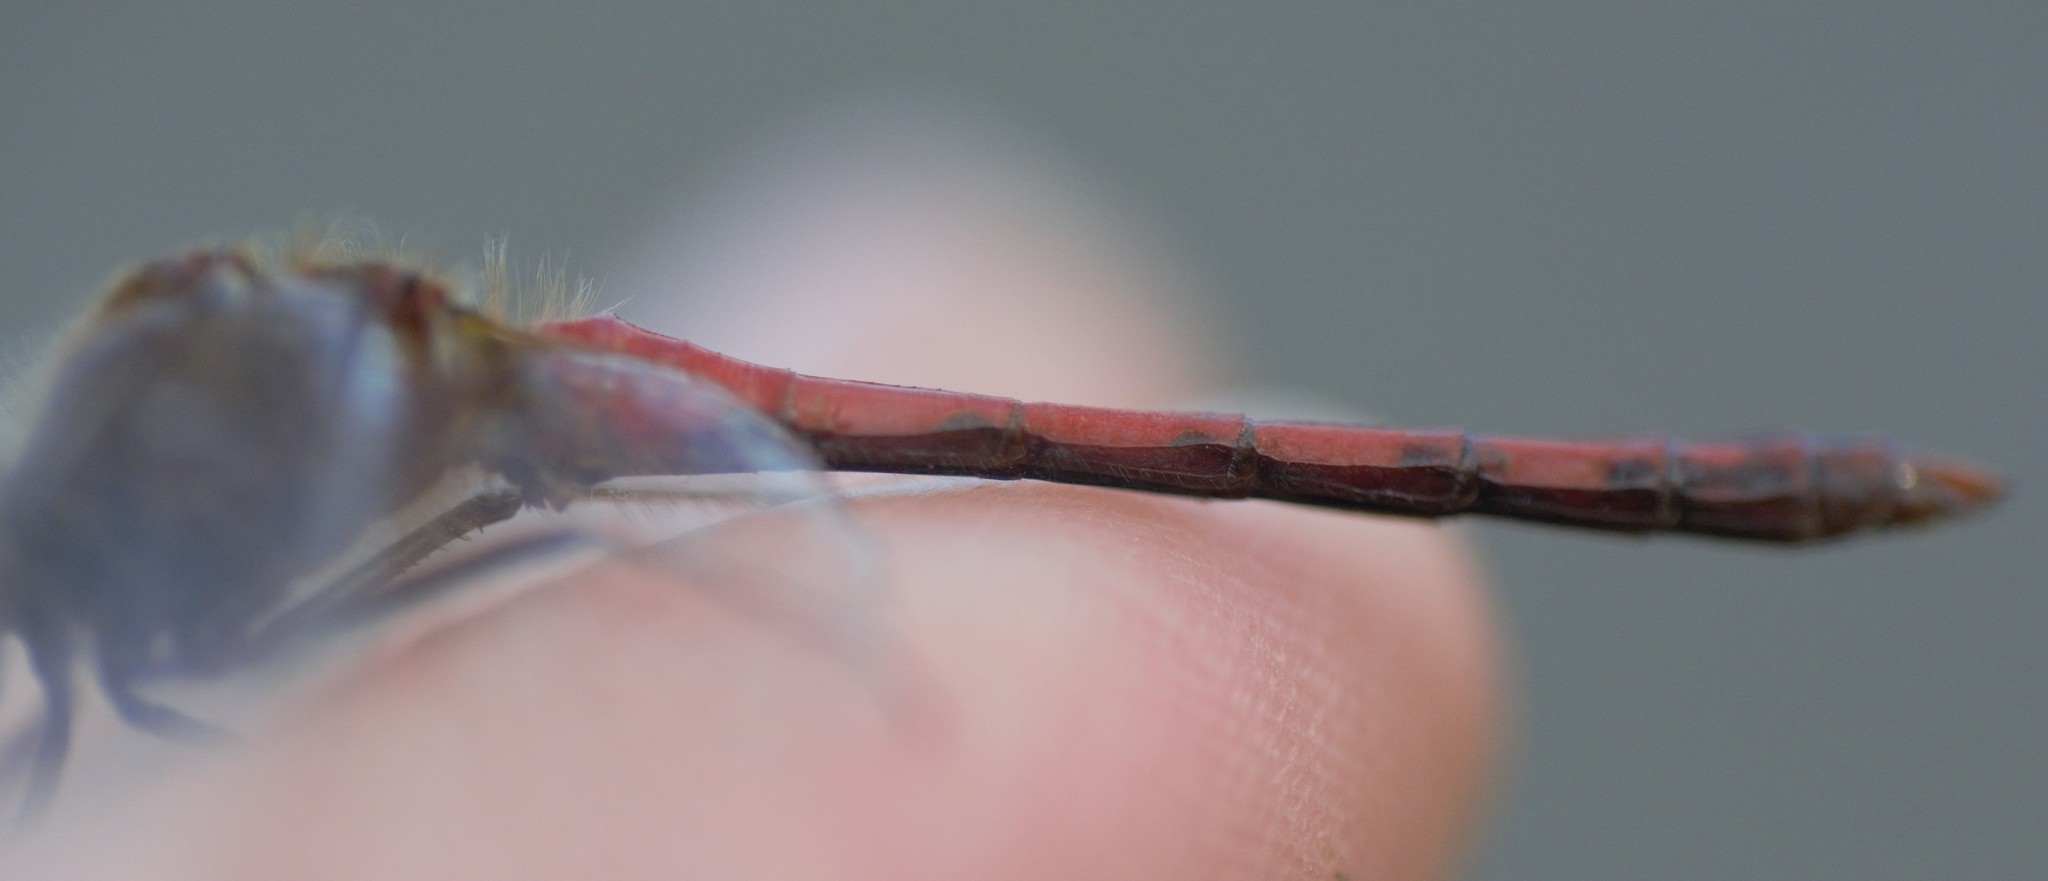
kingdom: Animalia
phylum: Arthropoda
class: Insecta
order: Odonata
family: Libellulidae
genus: Sympetrum
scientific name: Sympetrum vicinum
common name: Autumn meadowhawk
